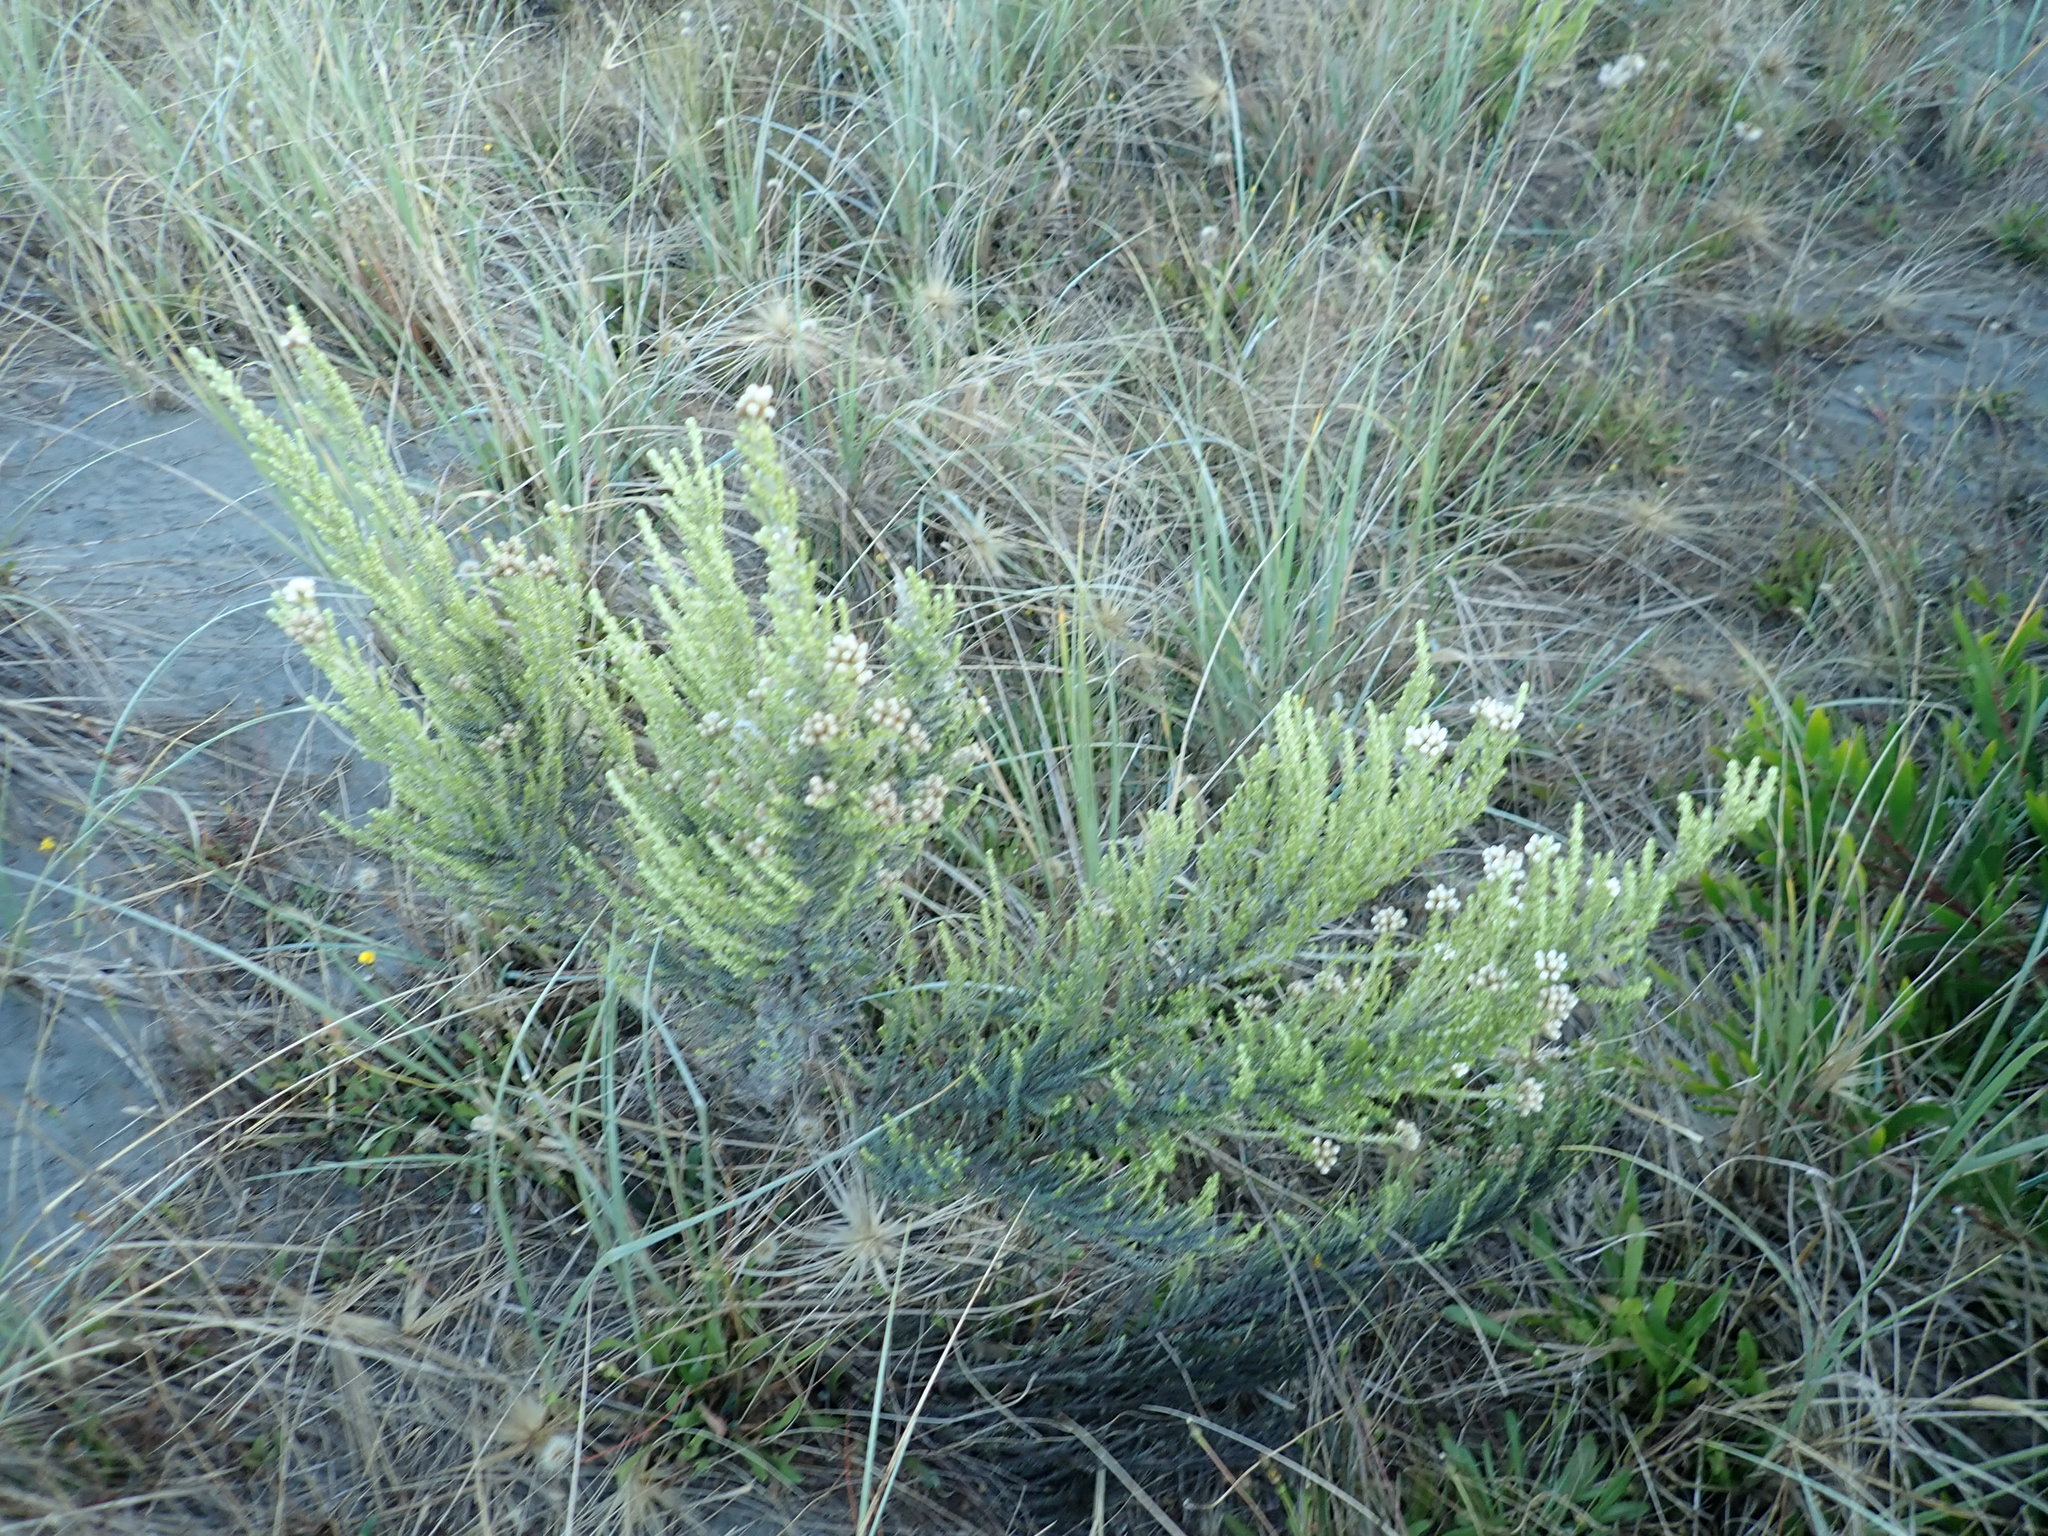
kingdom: Plantae
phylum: Tracheophyta
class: Magnoliopsida
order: Asterales
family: Asteraceae
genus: Ozothamnus
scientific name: Ozothamnus leptophyllus
